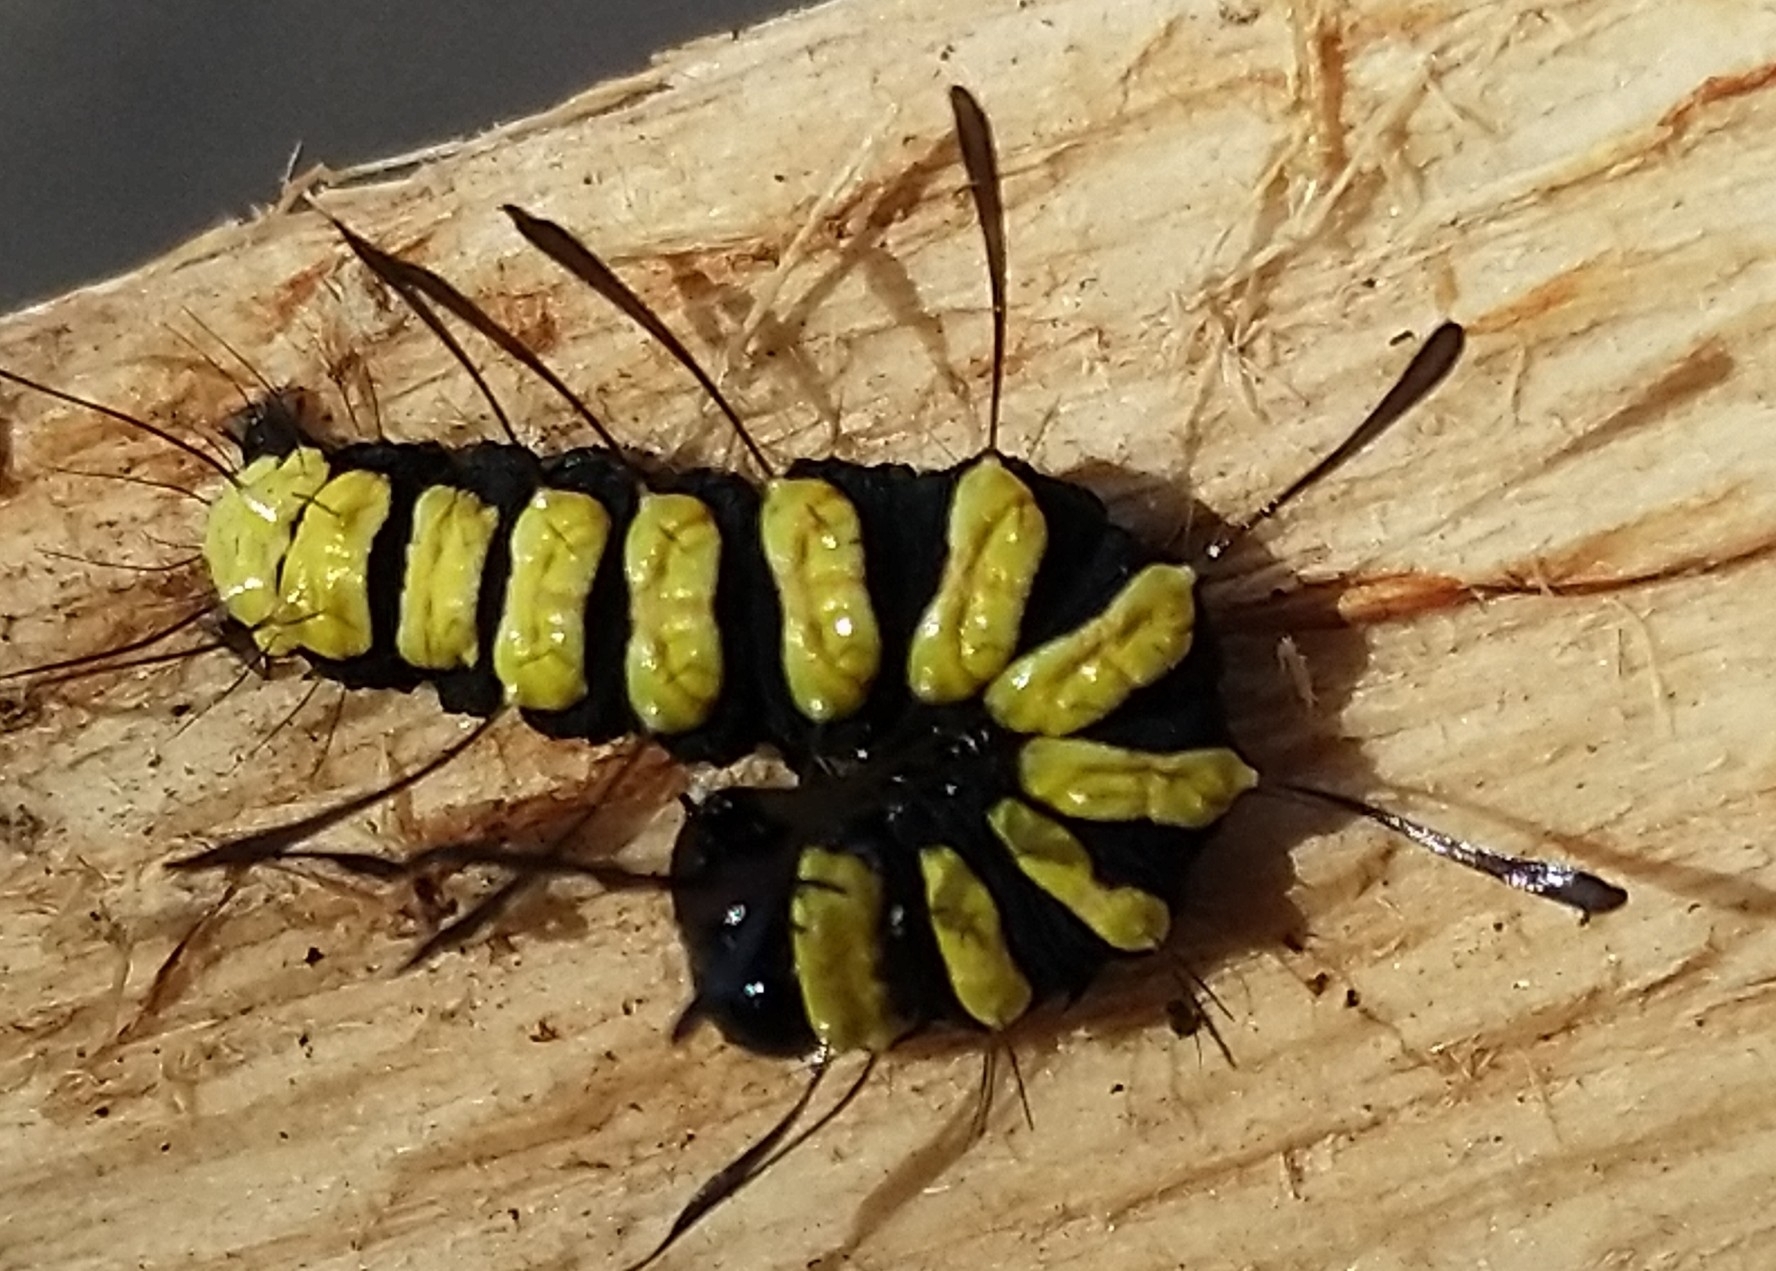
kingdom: Animalia
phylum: Arthropoda
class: Insecta
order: Lepidoptera
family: Noctuidae
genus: Acronicta
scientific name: Acronicta alni
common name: Alder moth
